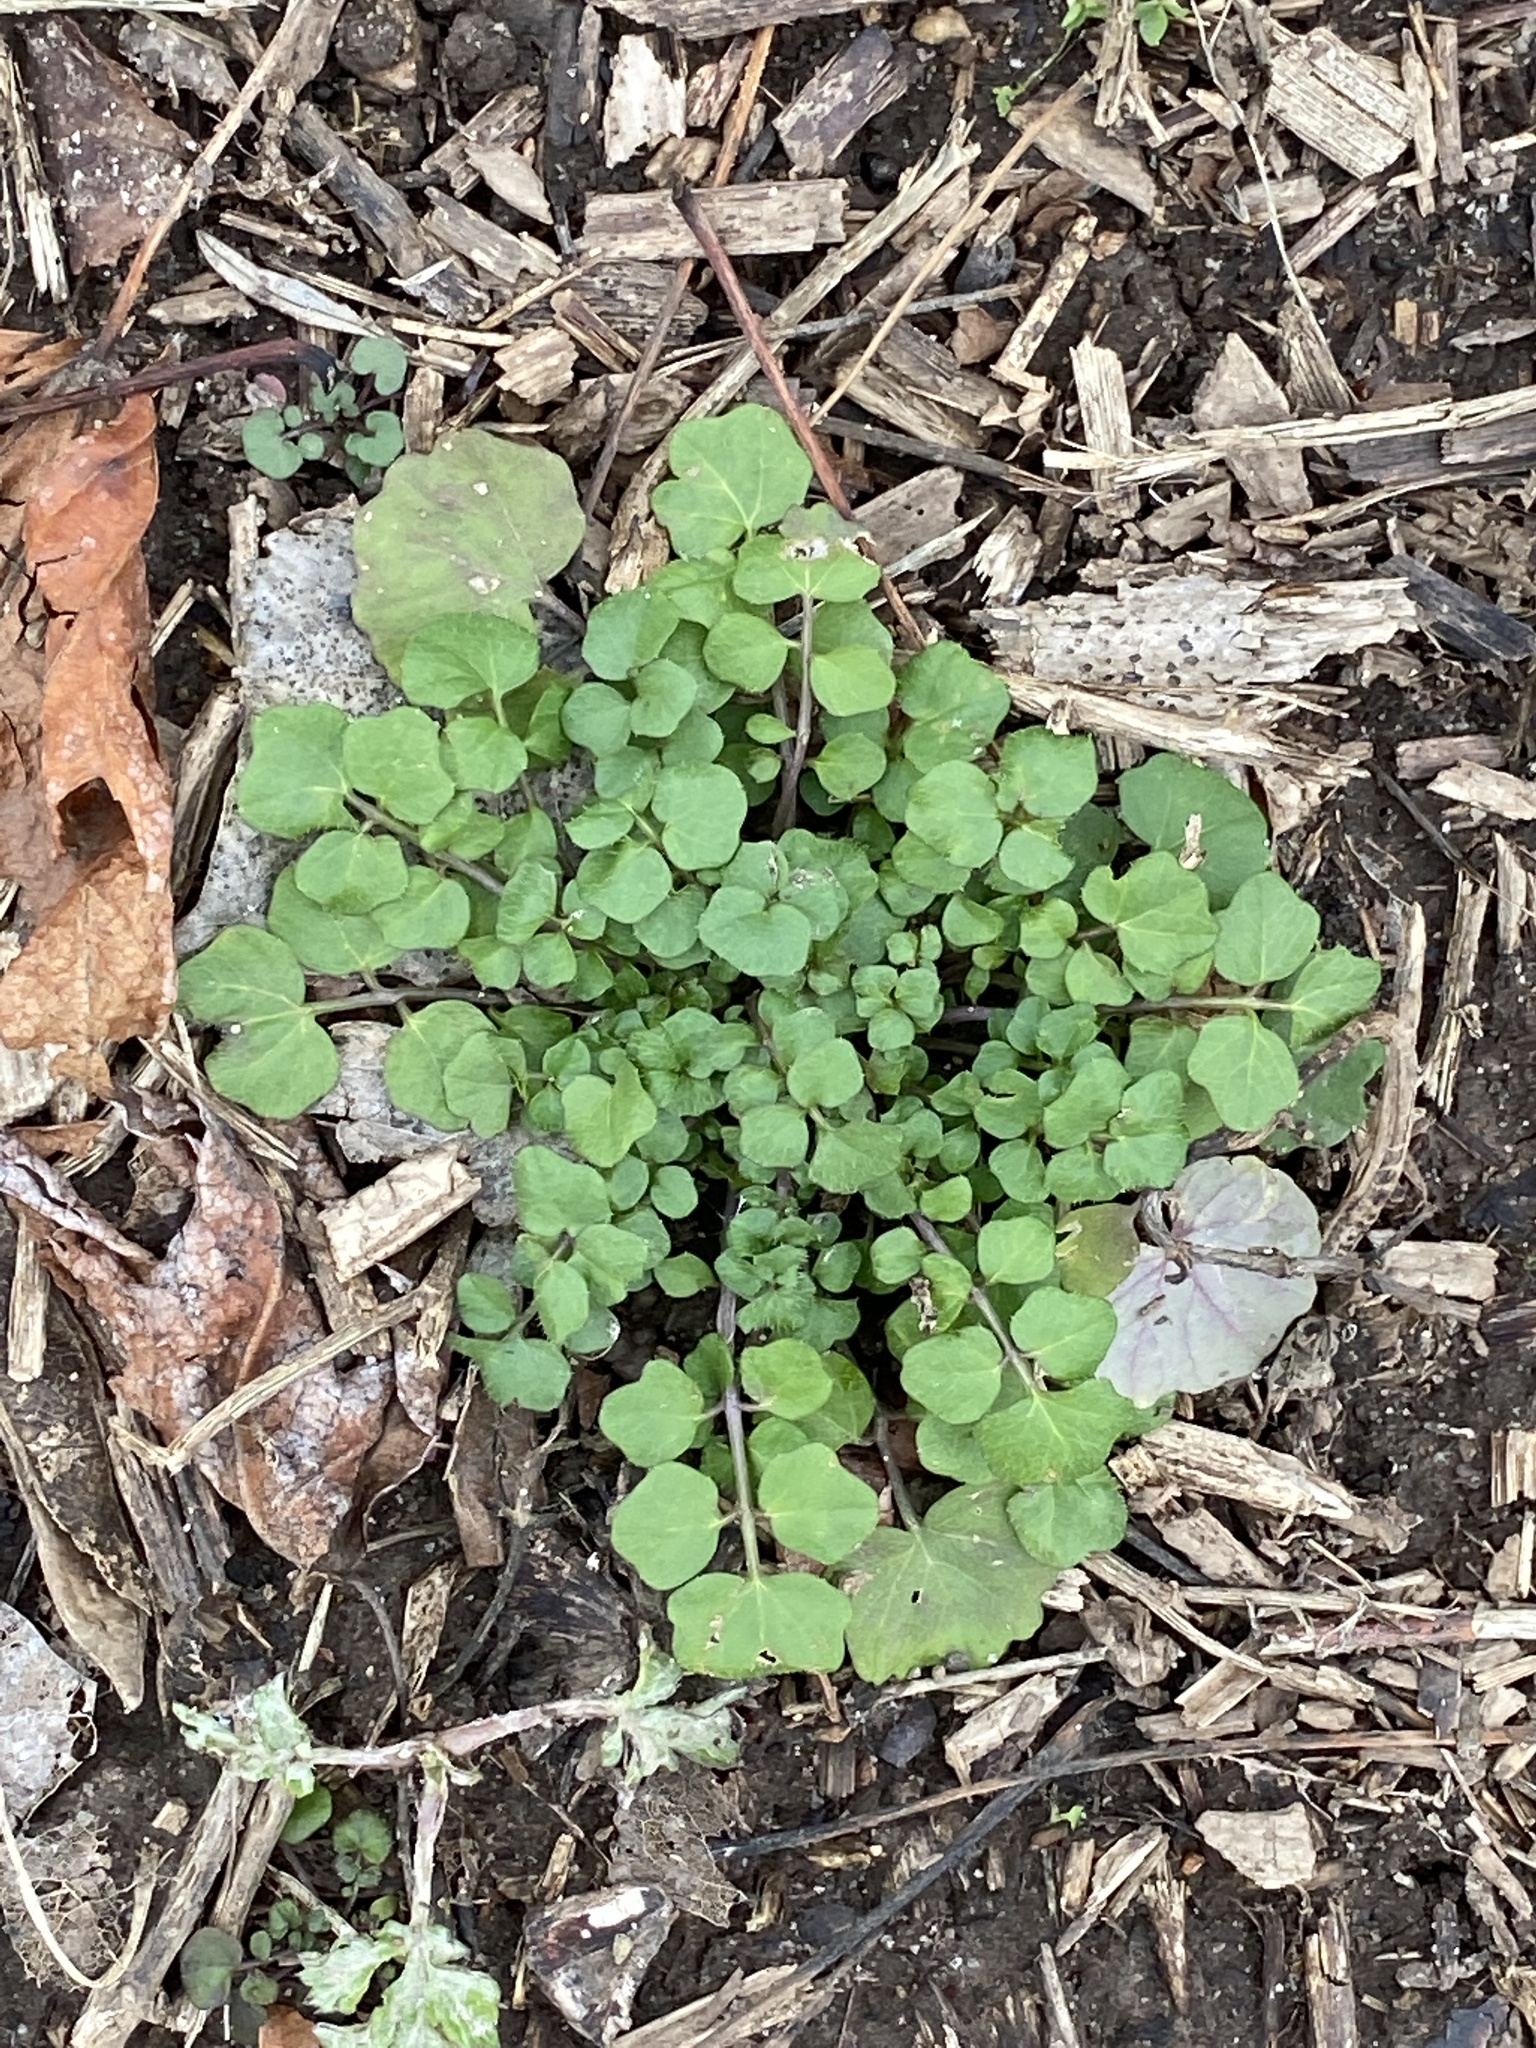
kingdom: Plantae
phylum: Tracheophyta
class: Magnoliopsida
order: Brassicales
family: Brassicaceae
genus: Cardamine
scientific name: Cardamine hirsuta
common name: Hairy bittercress
